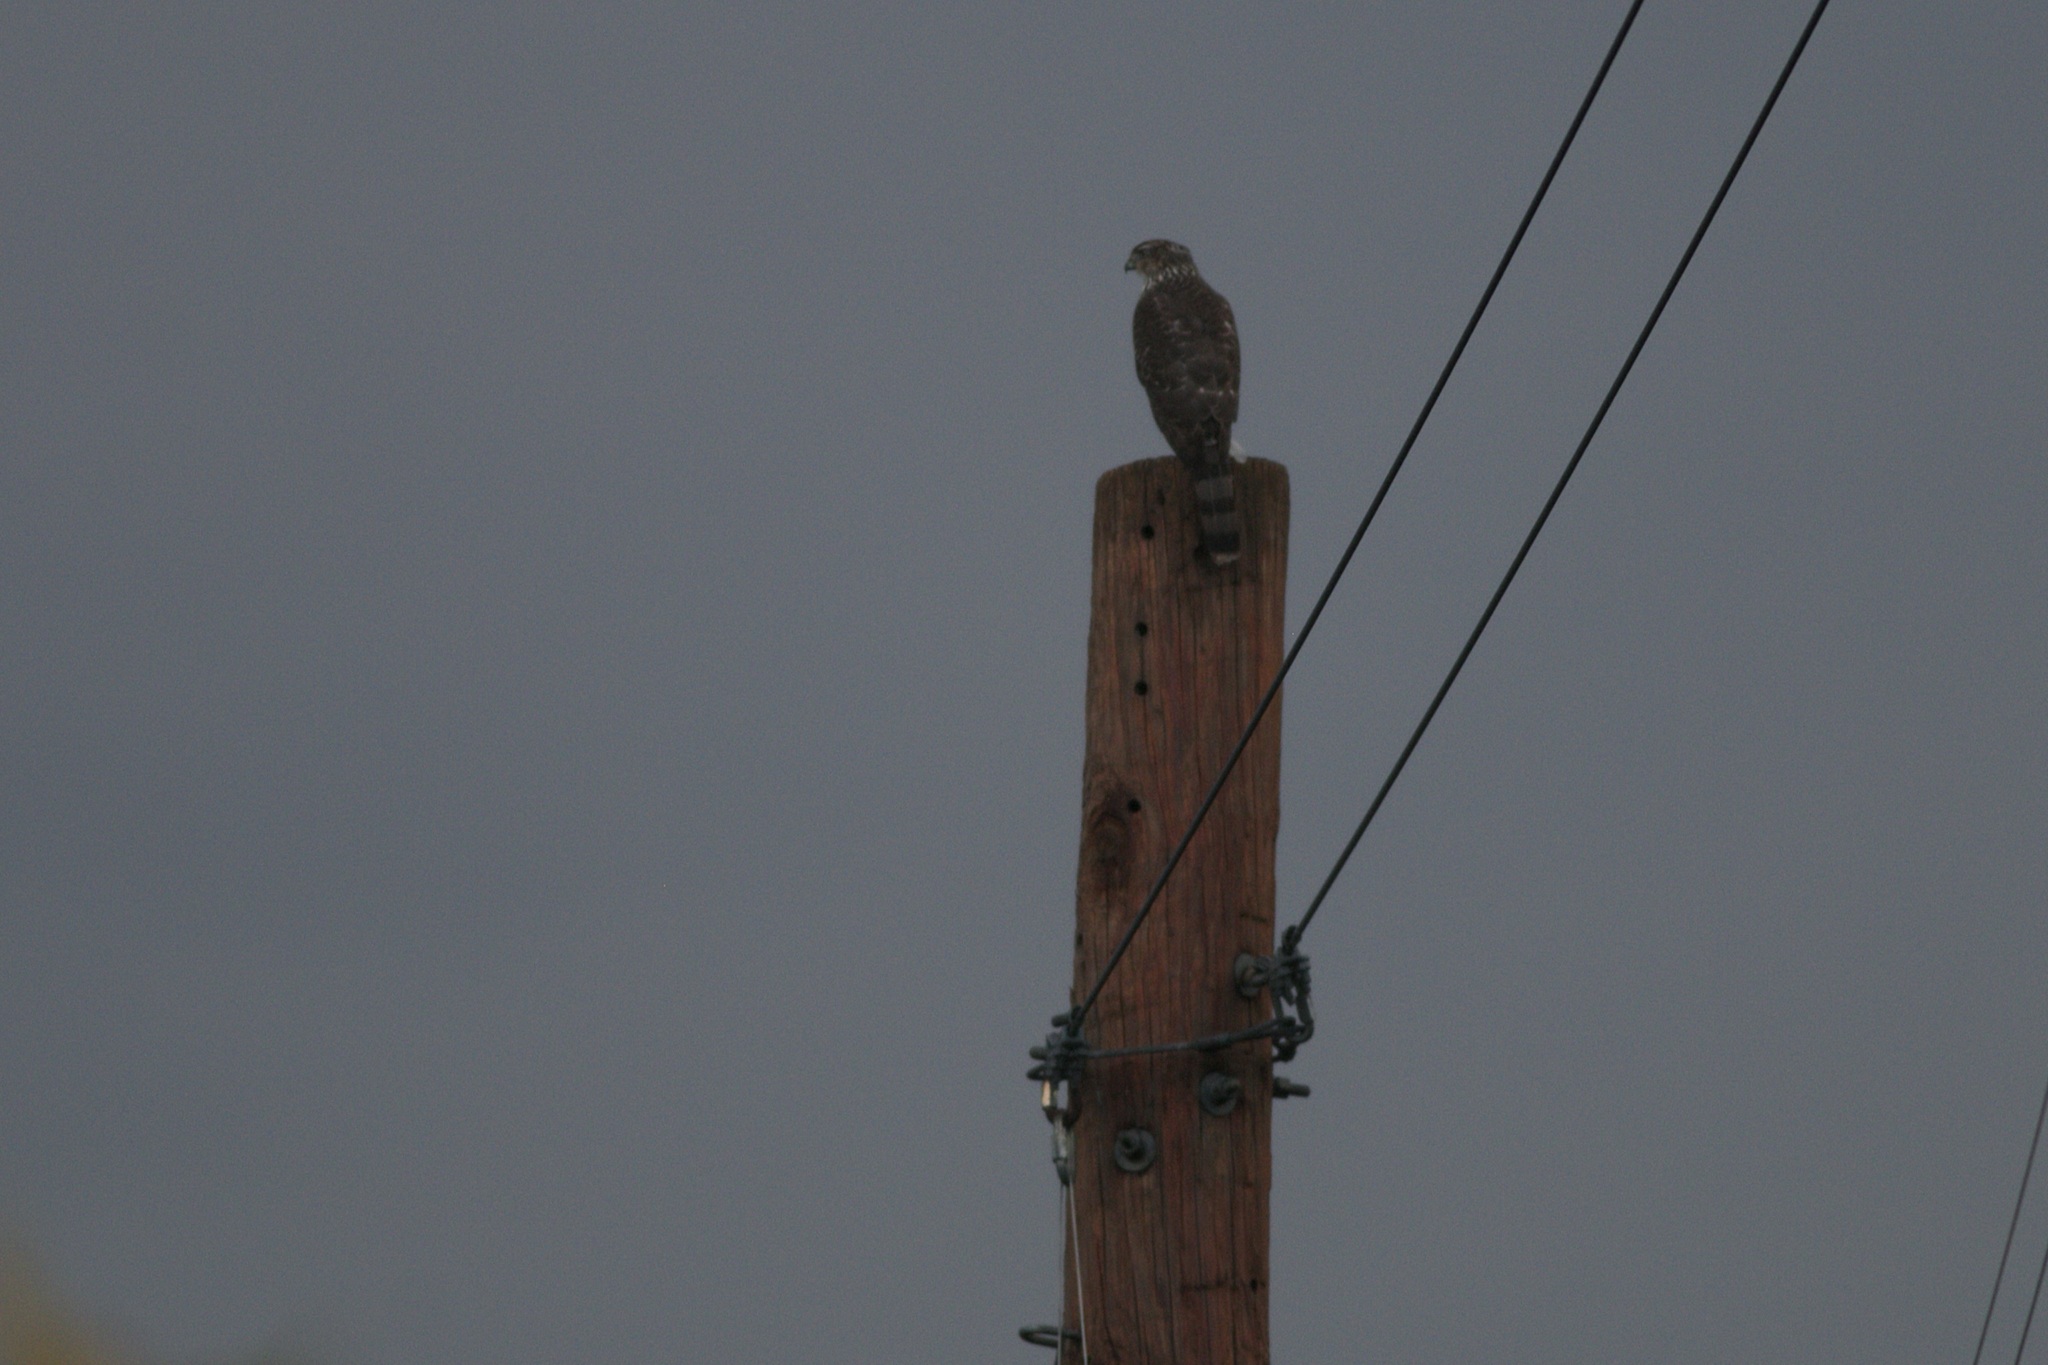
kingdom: Animalia
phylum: Chordata
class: Aves
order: Accipitriformes
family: Accipitridae
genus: Accipiter
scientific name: Accipiter cooperii
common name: Cooper's hawk
